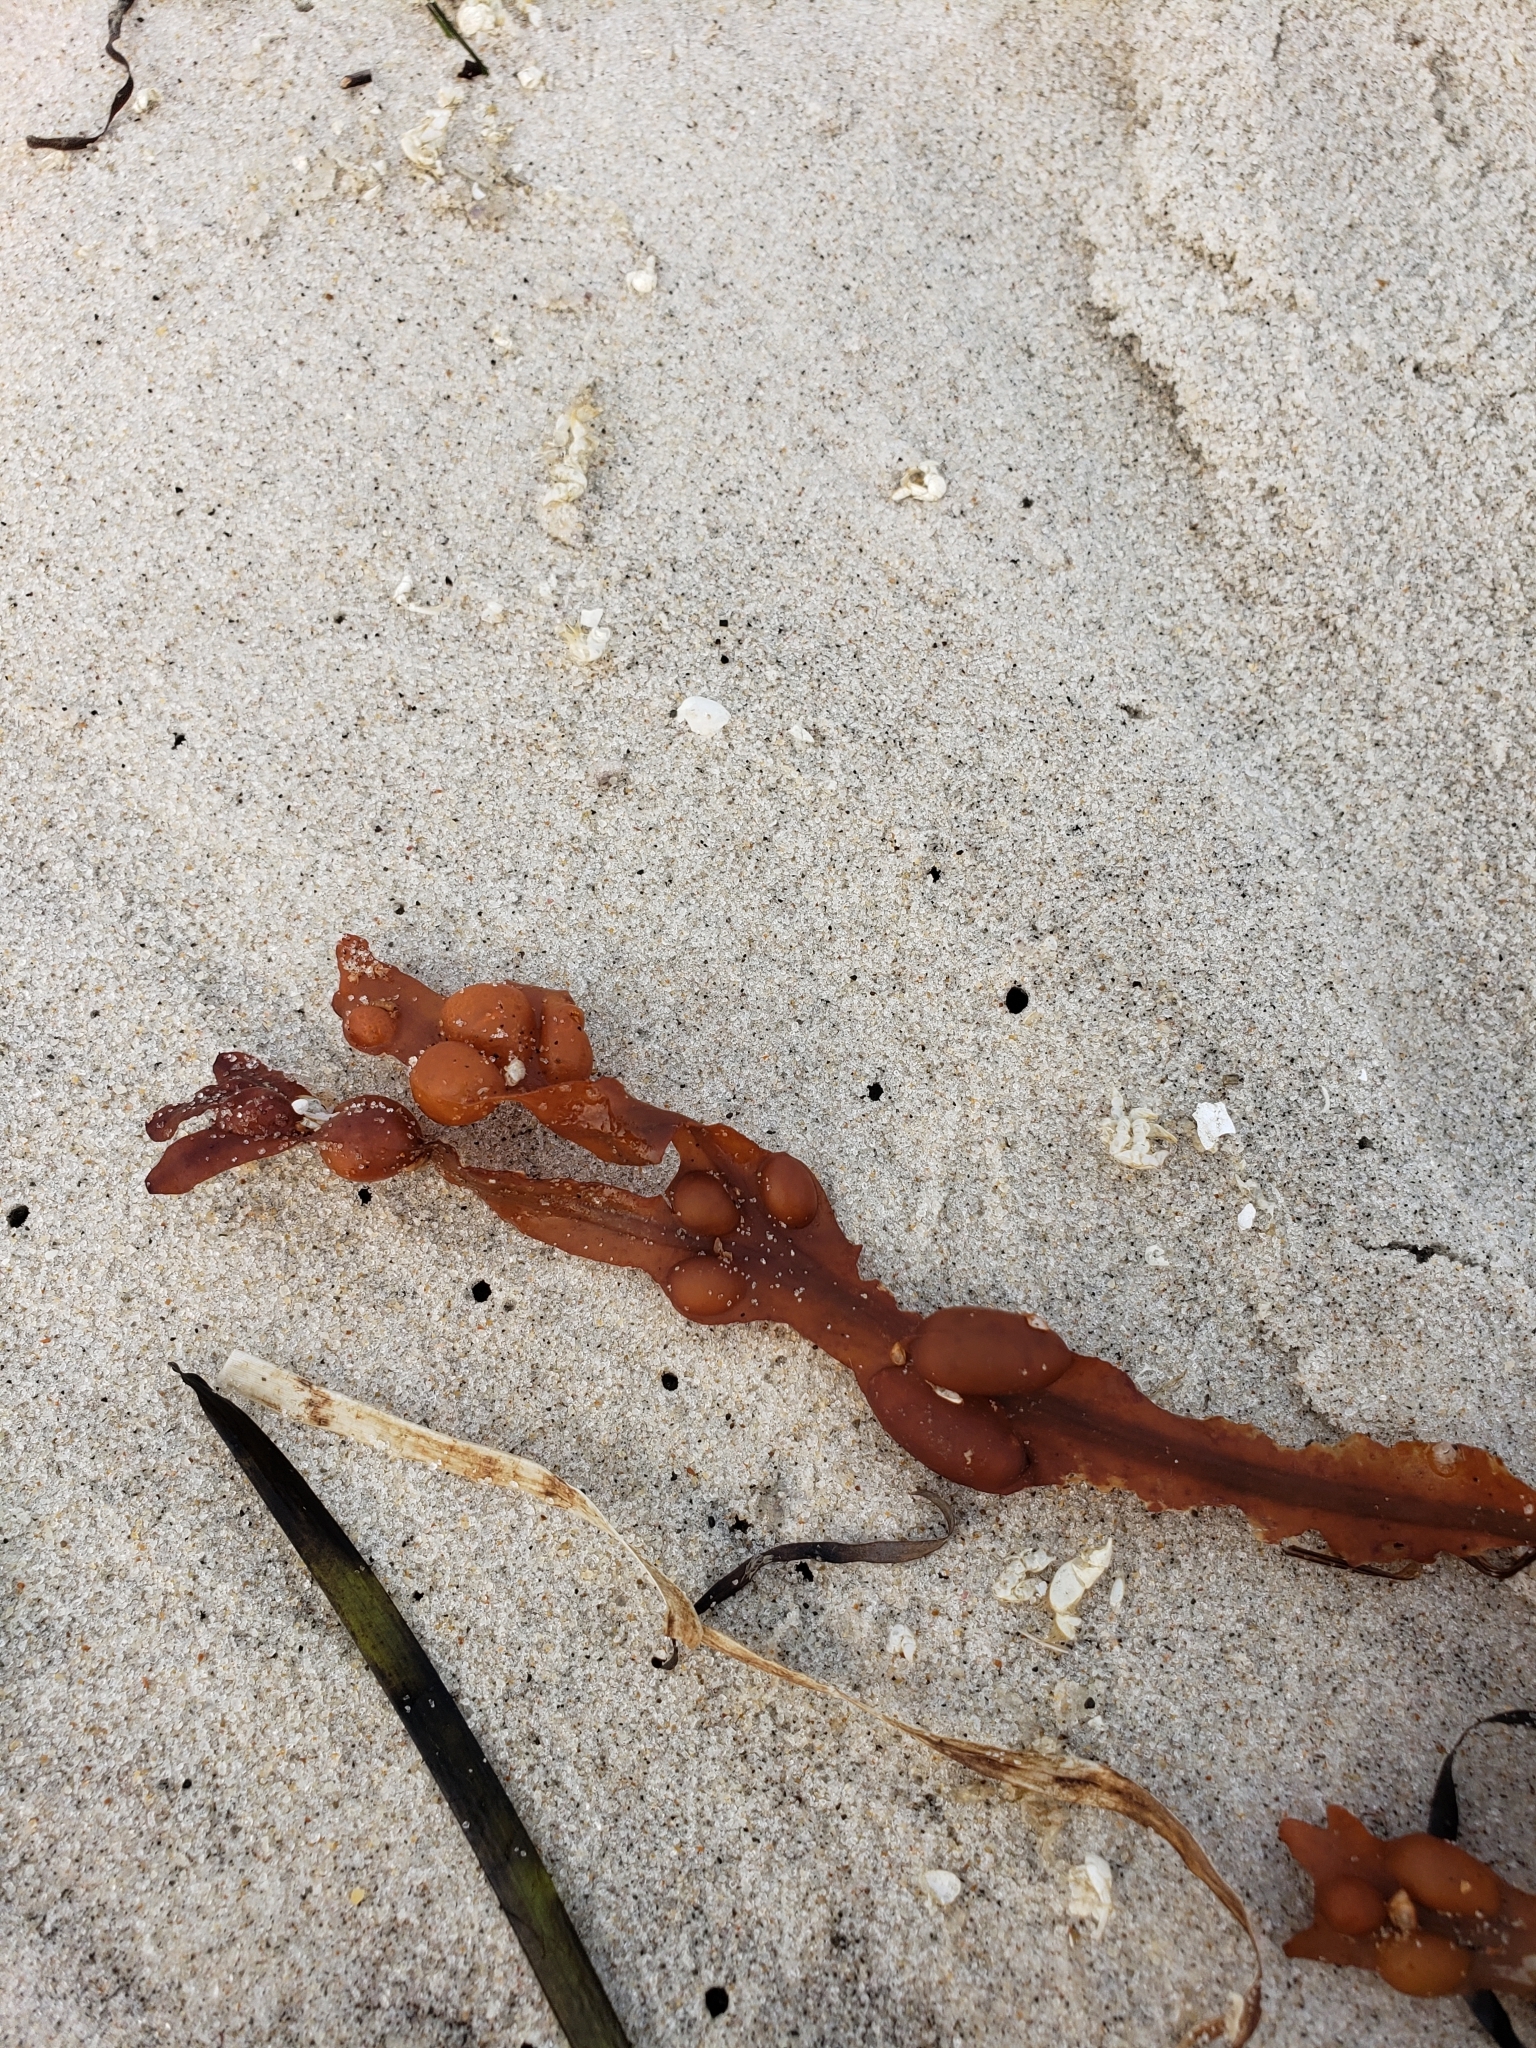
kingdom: Chromista
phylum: Ochrophyta
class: Phaeophyceae
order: Fucales
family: Fucaceae
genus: Fucus
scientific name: Fucus vesiculosus
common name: Bladder wrack
